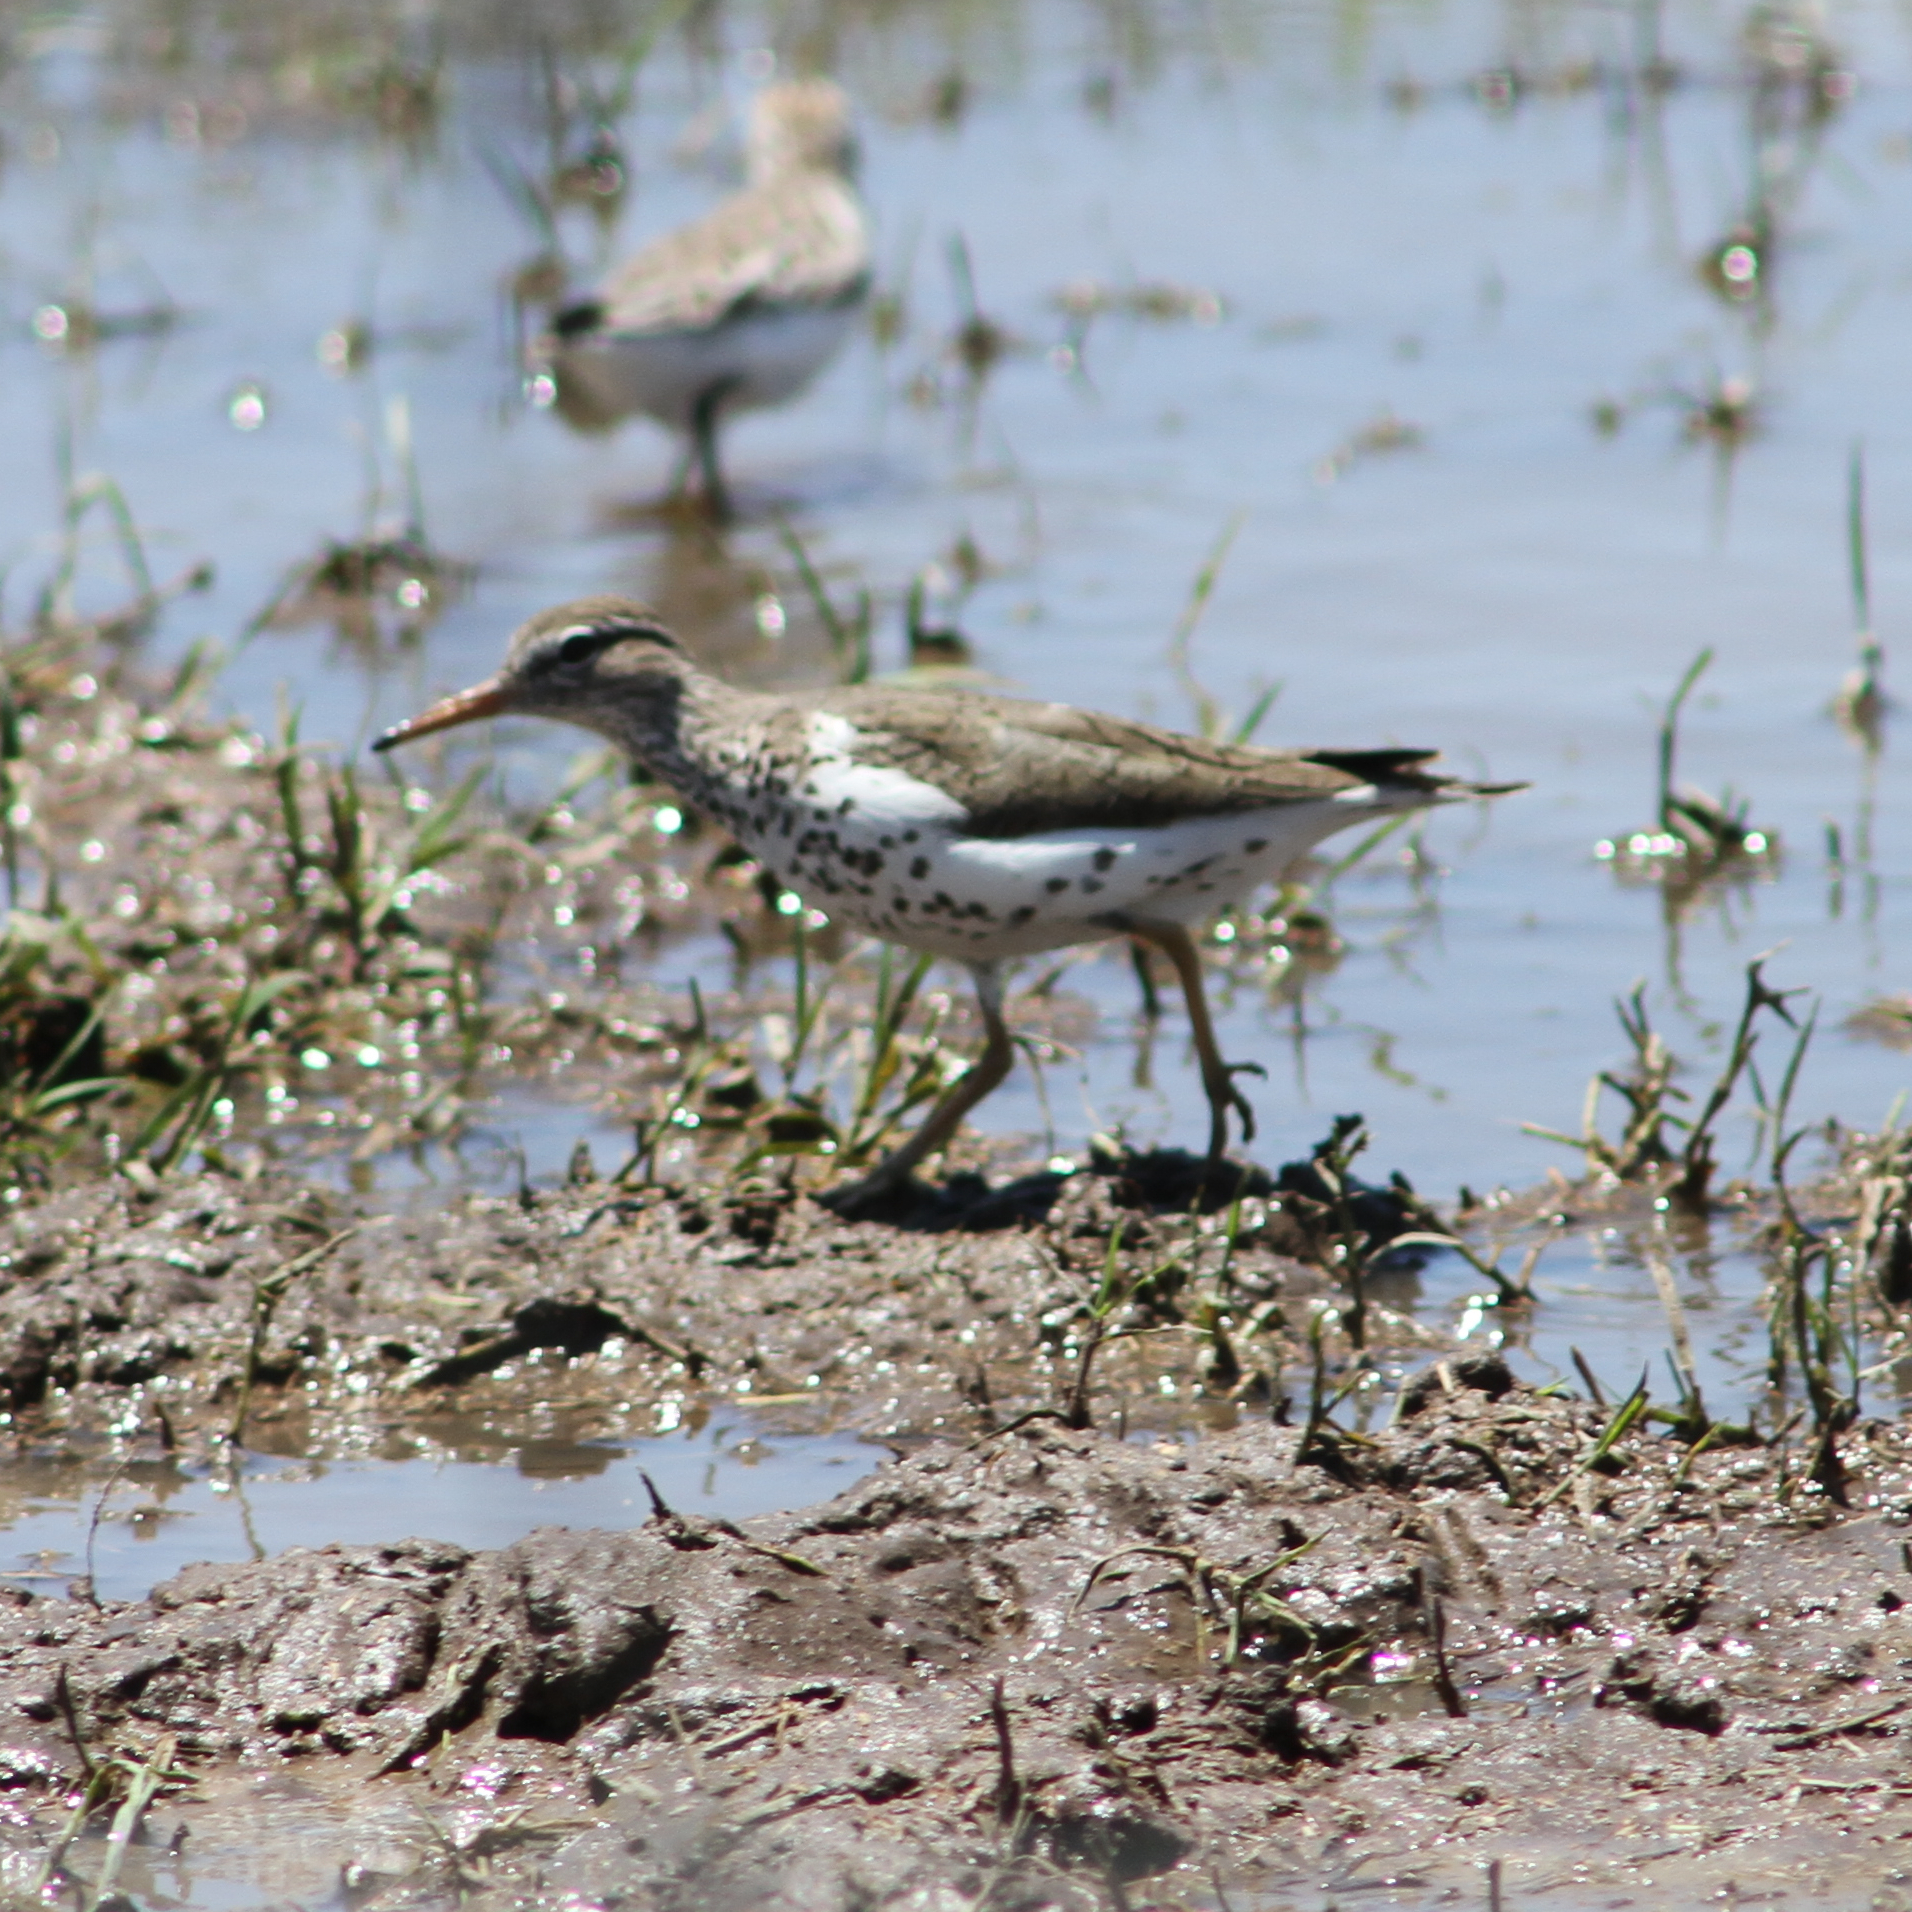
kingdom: Animalia
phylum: Chordata
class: Aves
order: Charadriiformes
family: Scolopacidae
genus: Actitis
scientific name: Actitis macularius
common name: Spotted sandpiper
